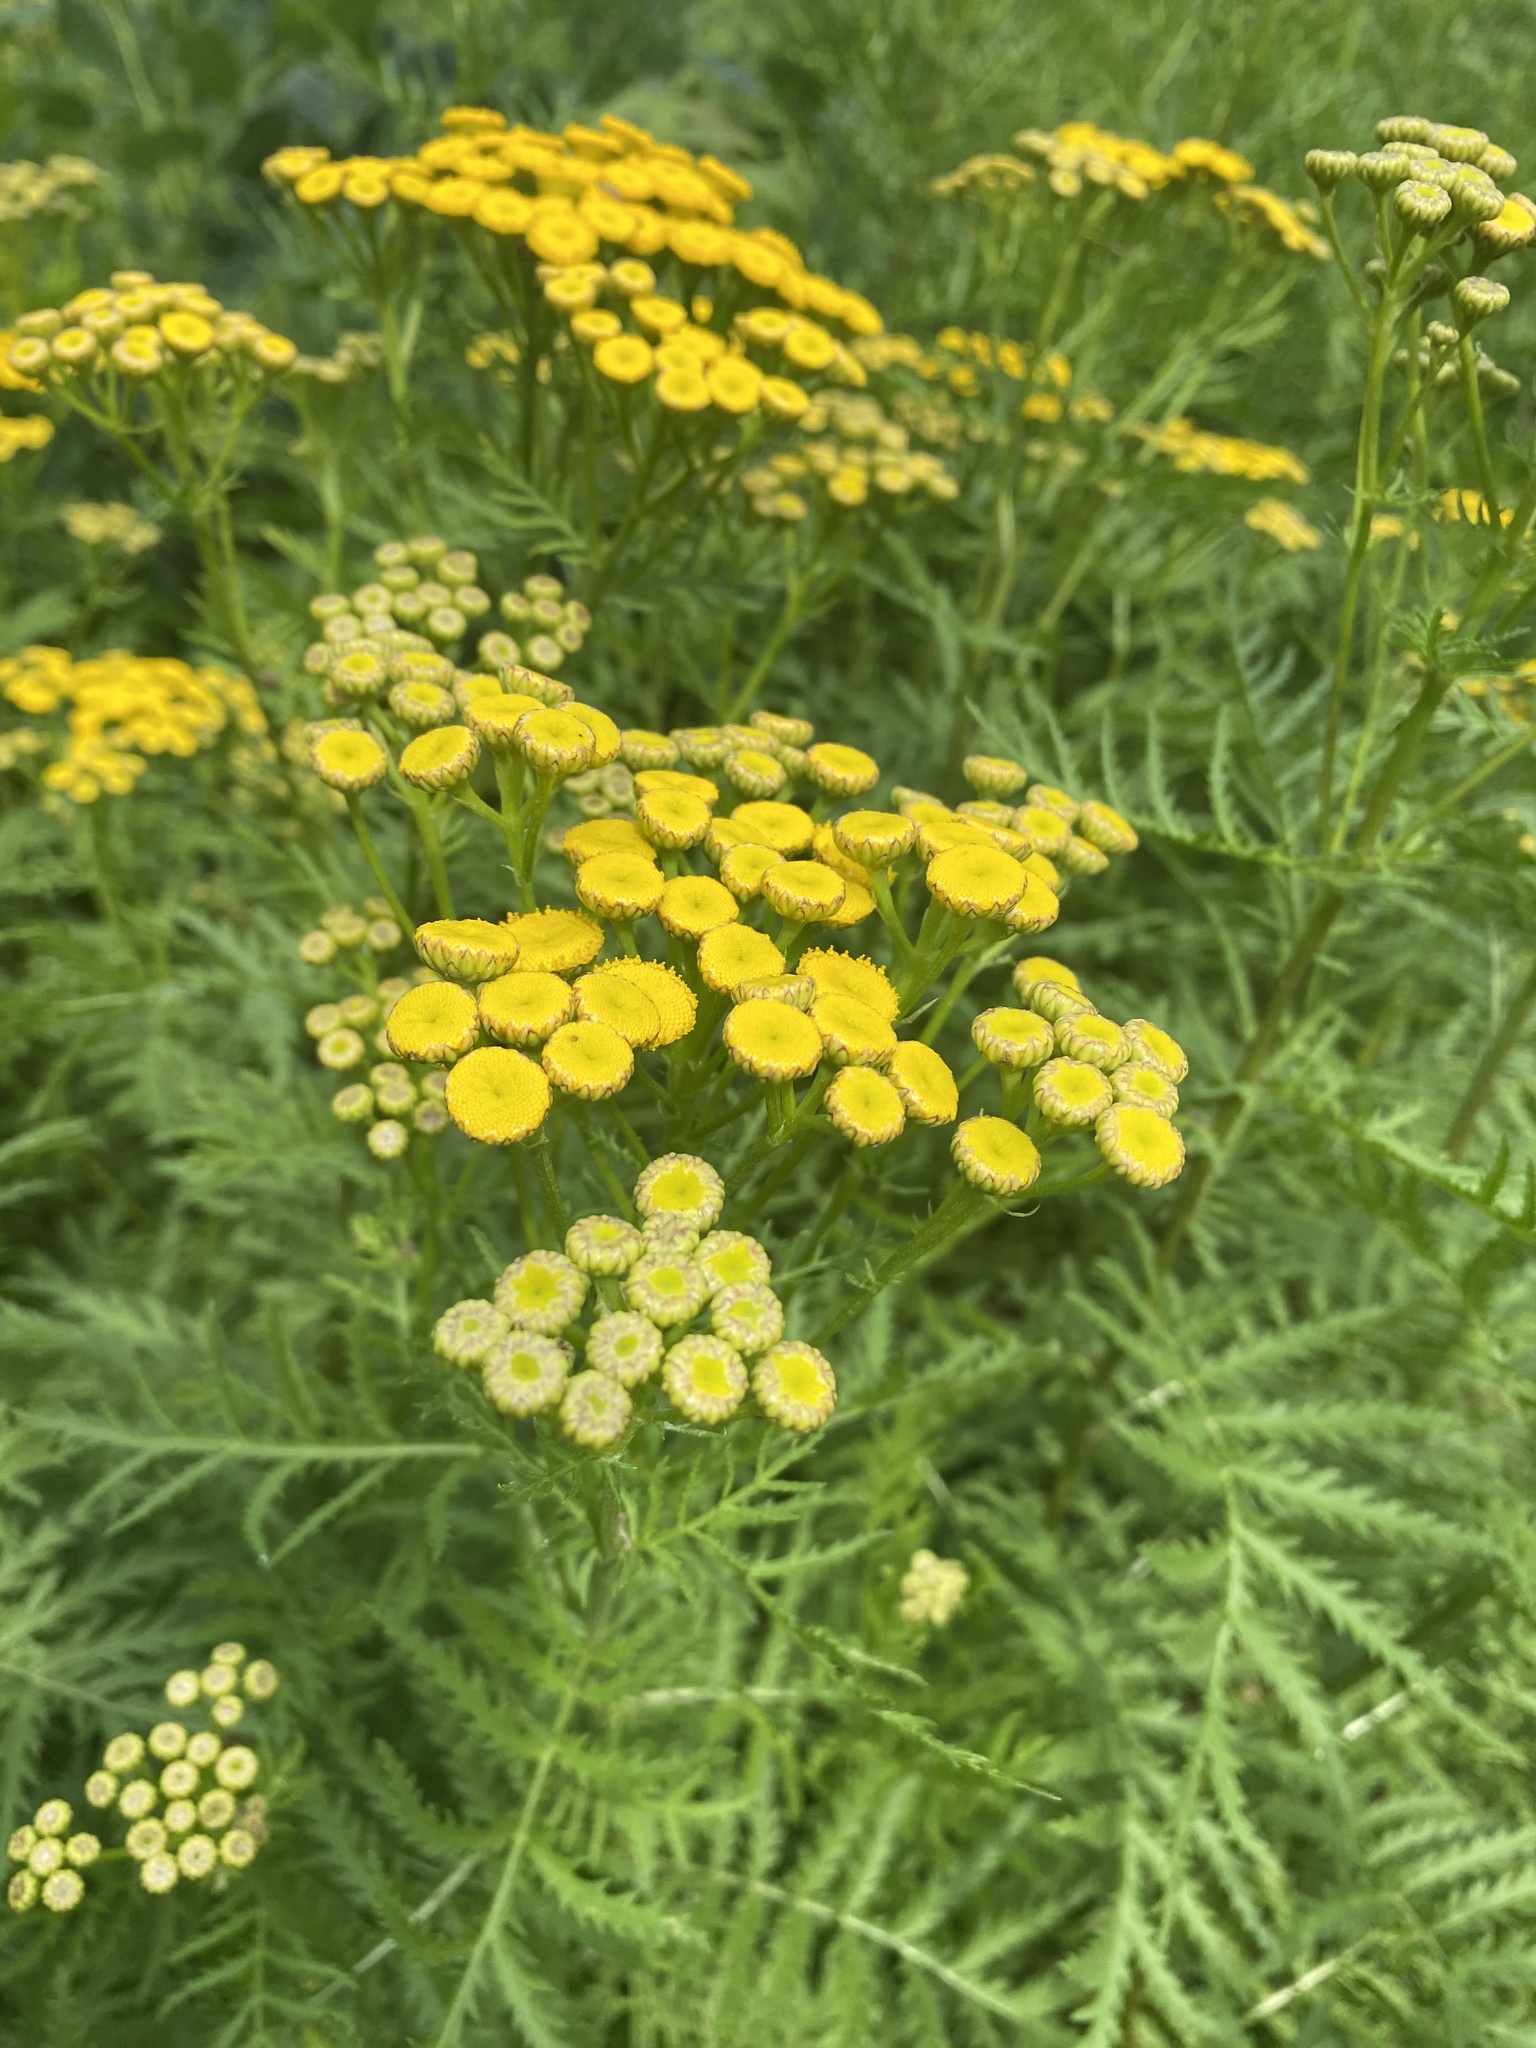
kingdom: Plantae
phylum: Tracheophyta
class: Magnoliopsida
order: Asterales
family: Asteraceae
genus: Tanacetum
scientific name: Tanacetum vulgare
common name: Common tansy
